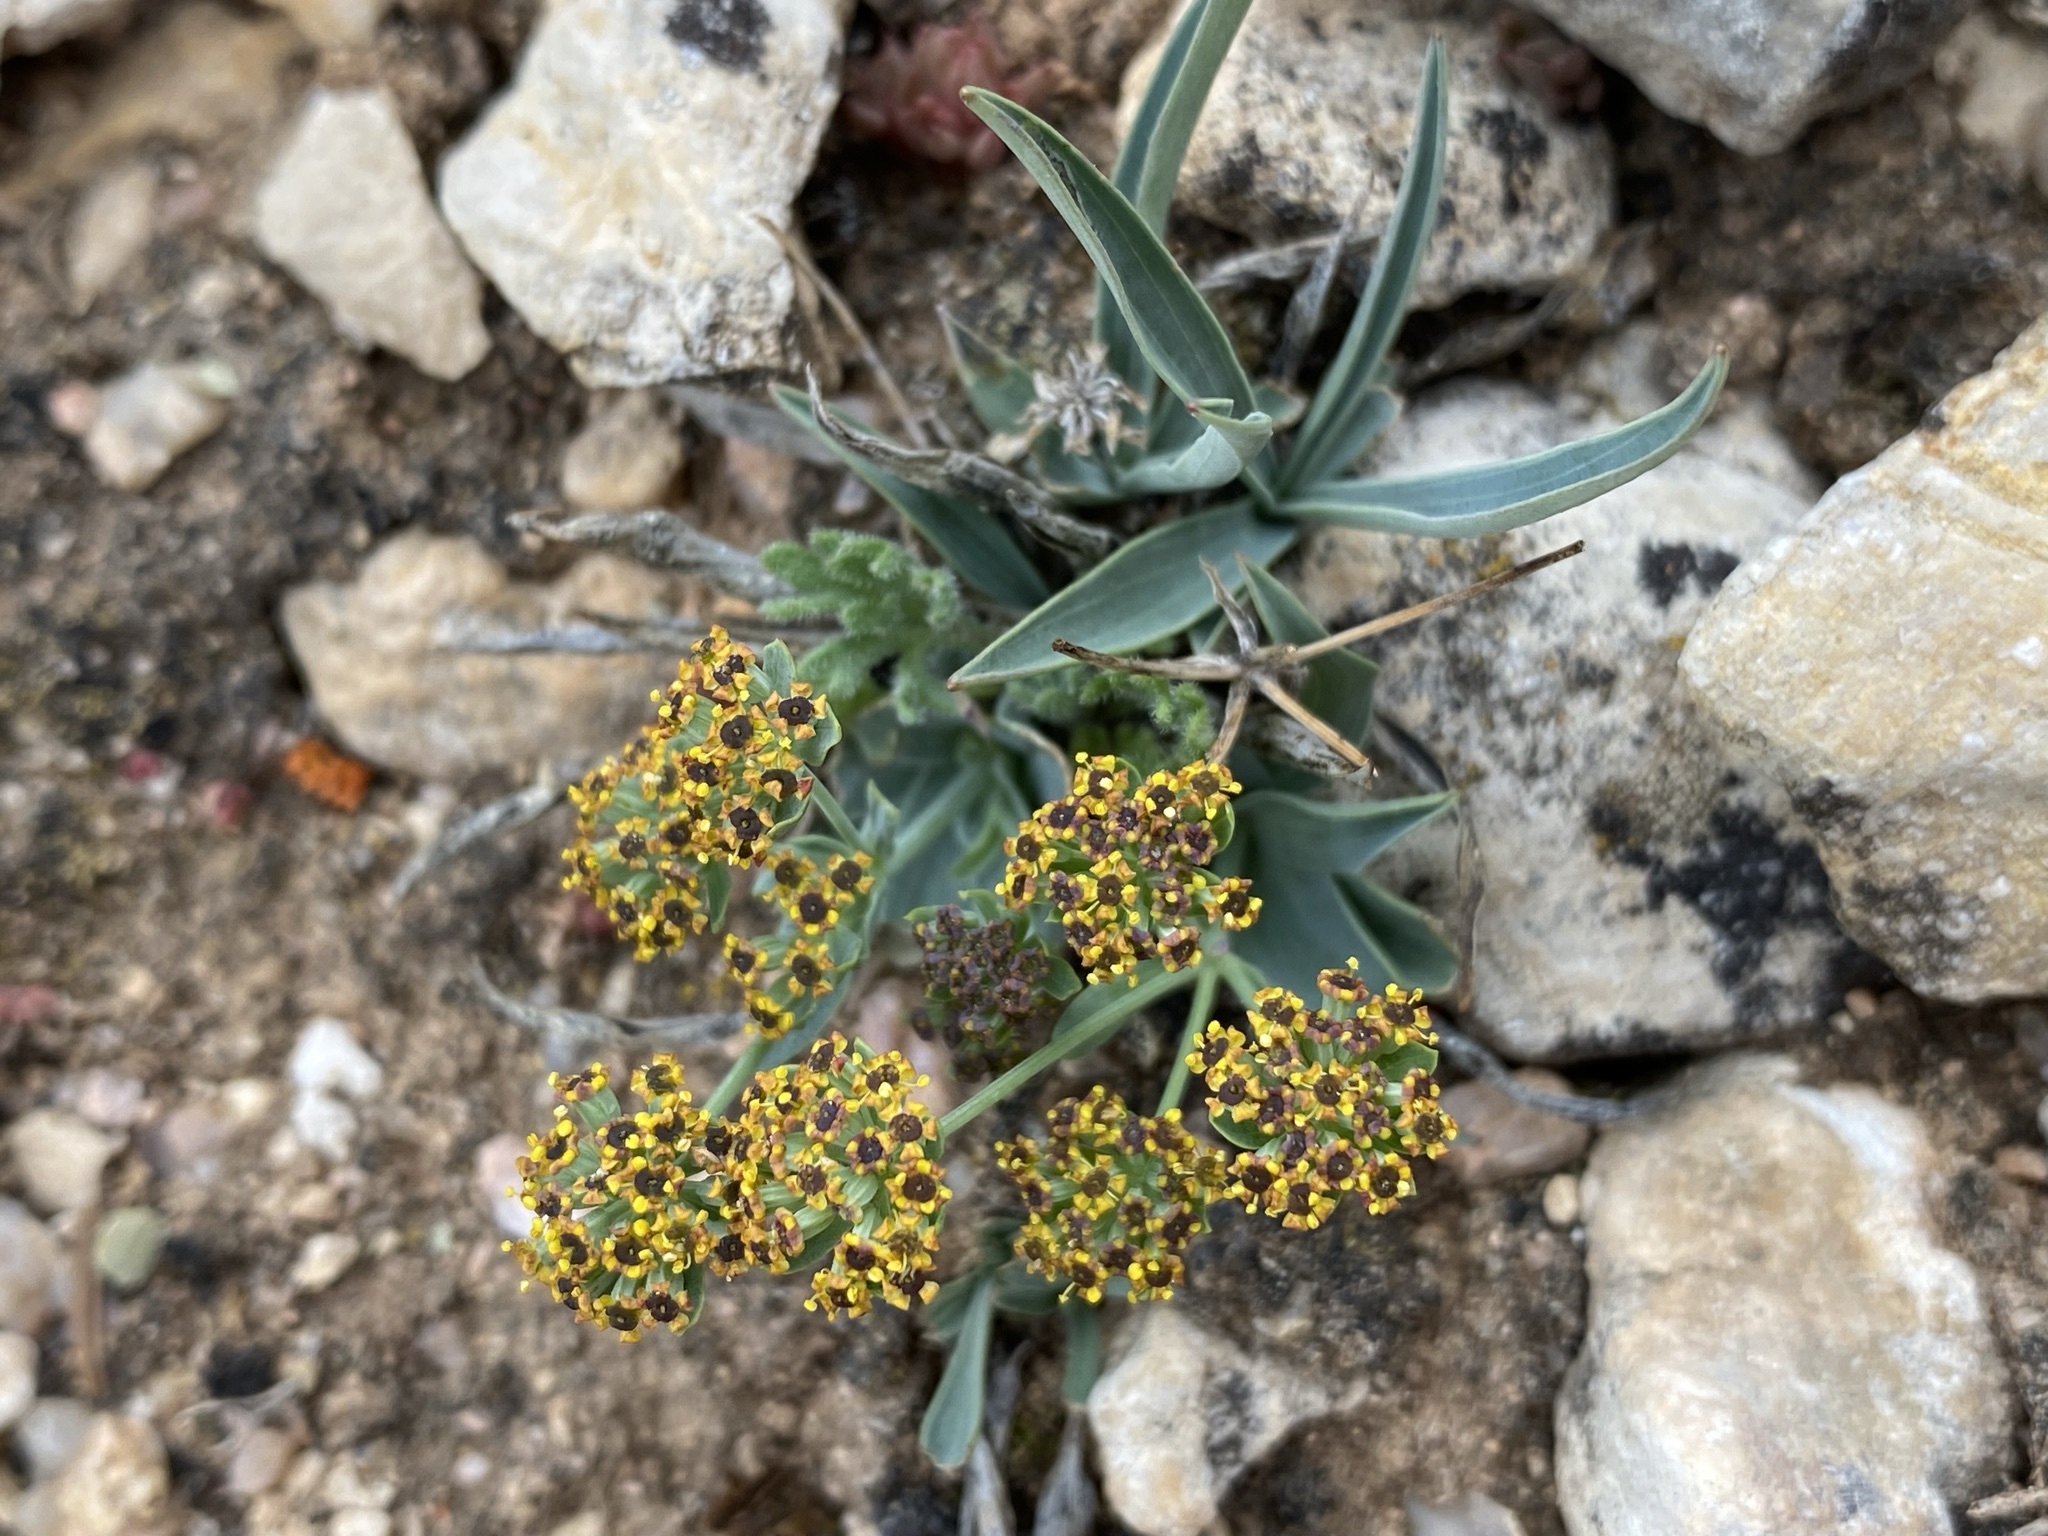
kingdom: Plantae
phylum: Tracheophyta
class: Magnoliopsida
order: Apiales
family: Apiaceae
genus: Bupleurum
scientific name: Bupleurum americanum
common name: American thoroughwax
